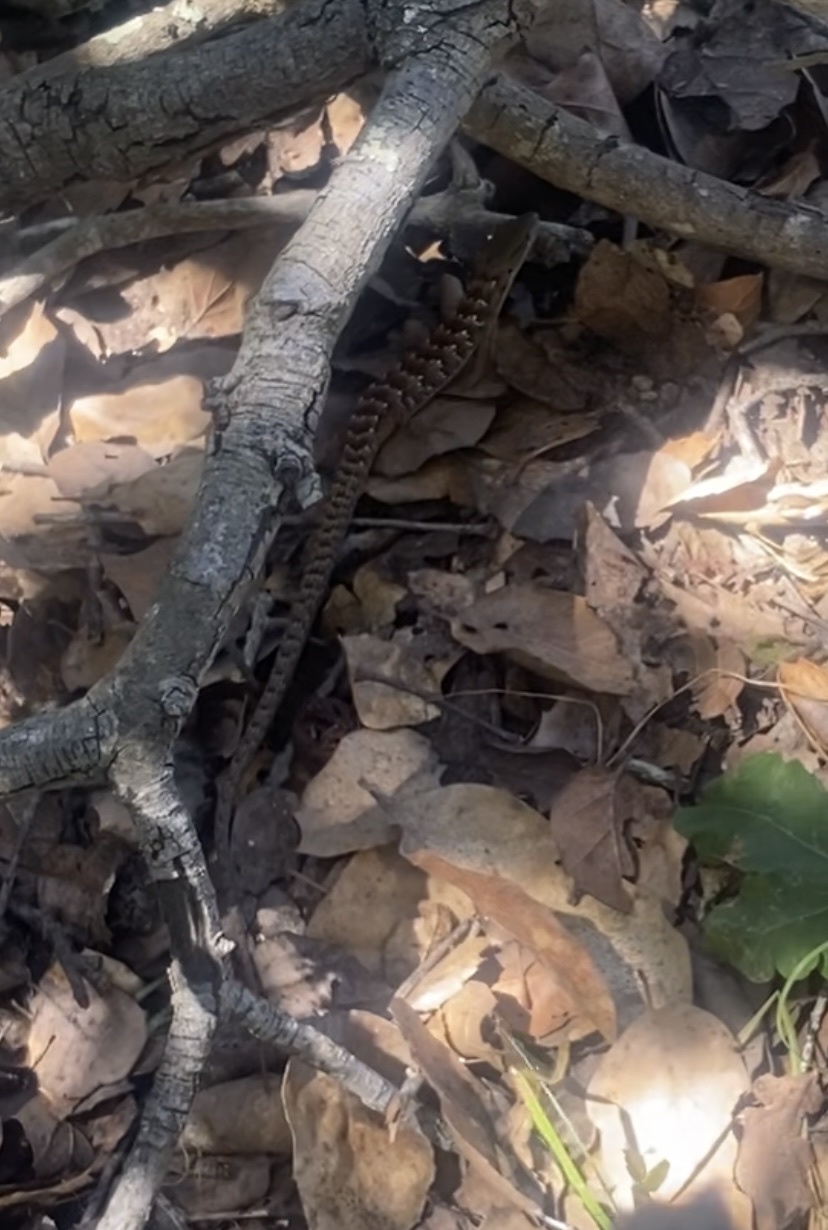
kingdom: Animalia
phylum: Chordata
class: Squamata
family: Anguidae
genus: Elgaria
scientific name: Elgaria multicarinata
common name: Southern alligator lizard
